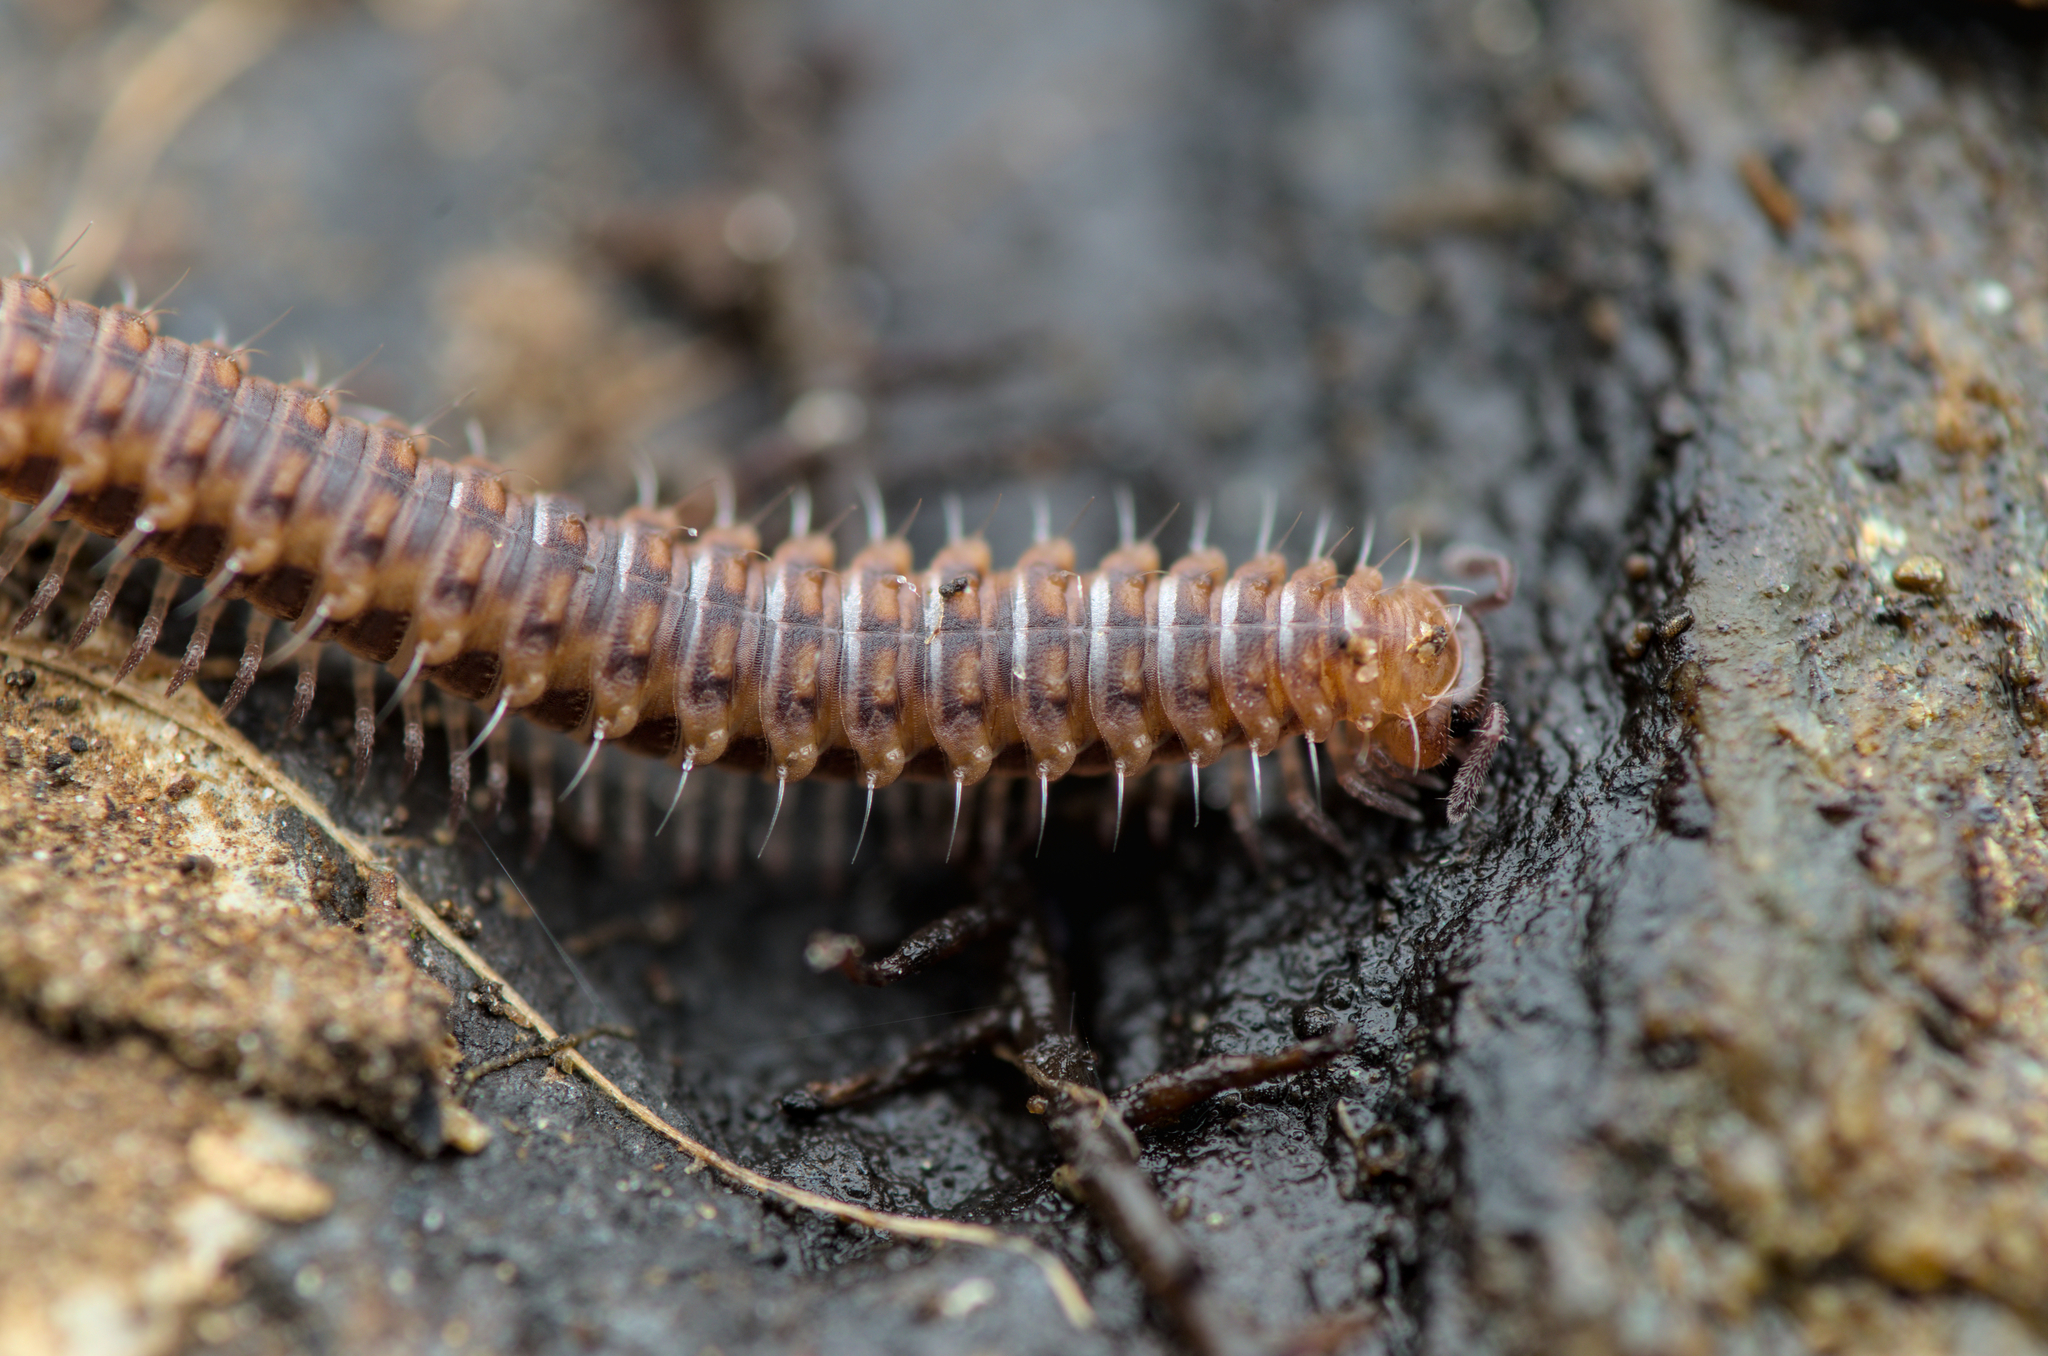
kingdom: Animalia
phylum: Arthropoda
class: Diplopoda
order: Chordeumatida
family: Craspedosomatidae
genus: Nanogona
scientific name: Nanogona polydesmoides
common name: Eyed flat-backed millipede
